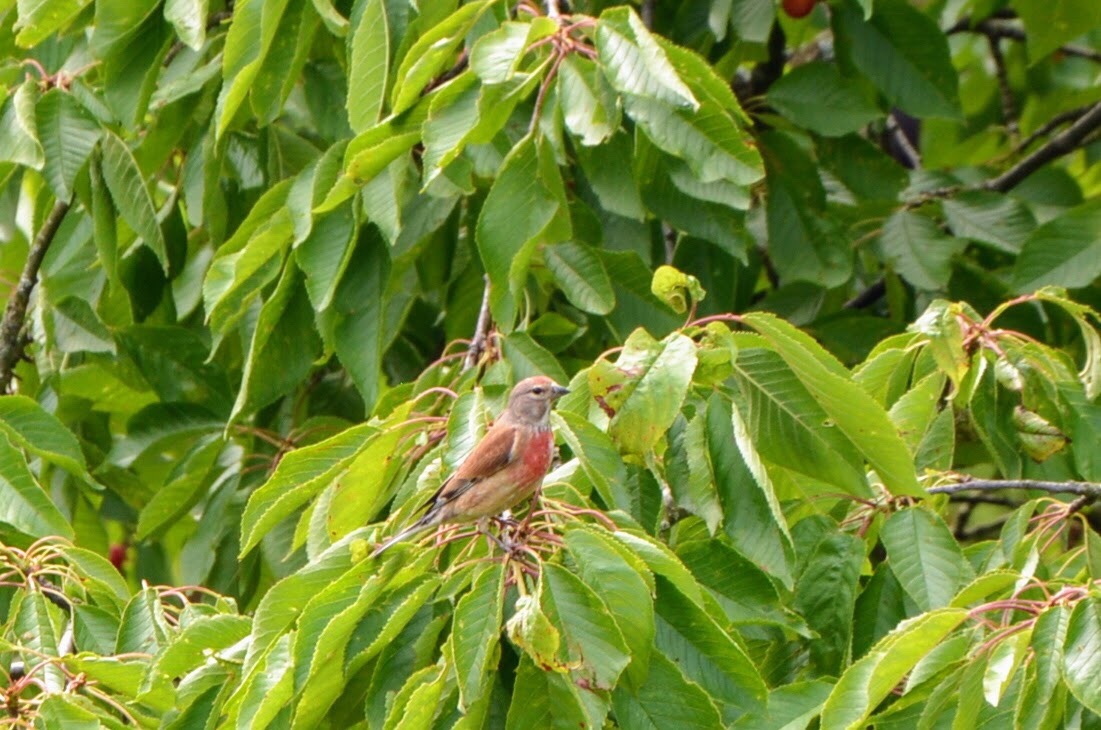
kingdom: Animalia
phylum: Chordata
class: Aves
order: Passeriformes
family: Fringillidae
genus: Linaria
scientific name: Linaria cannabina
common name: Common linnet
